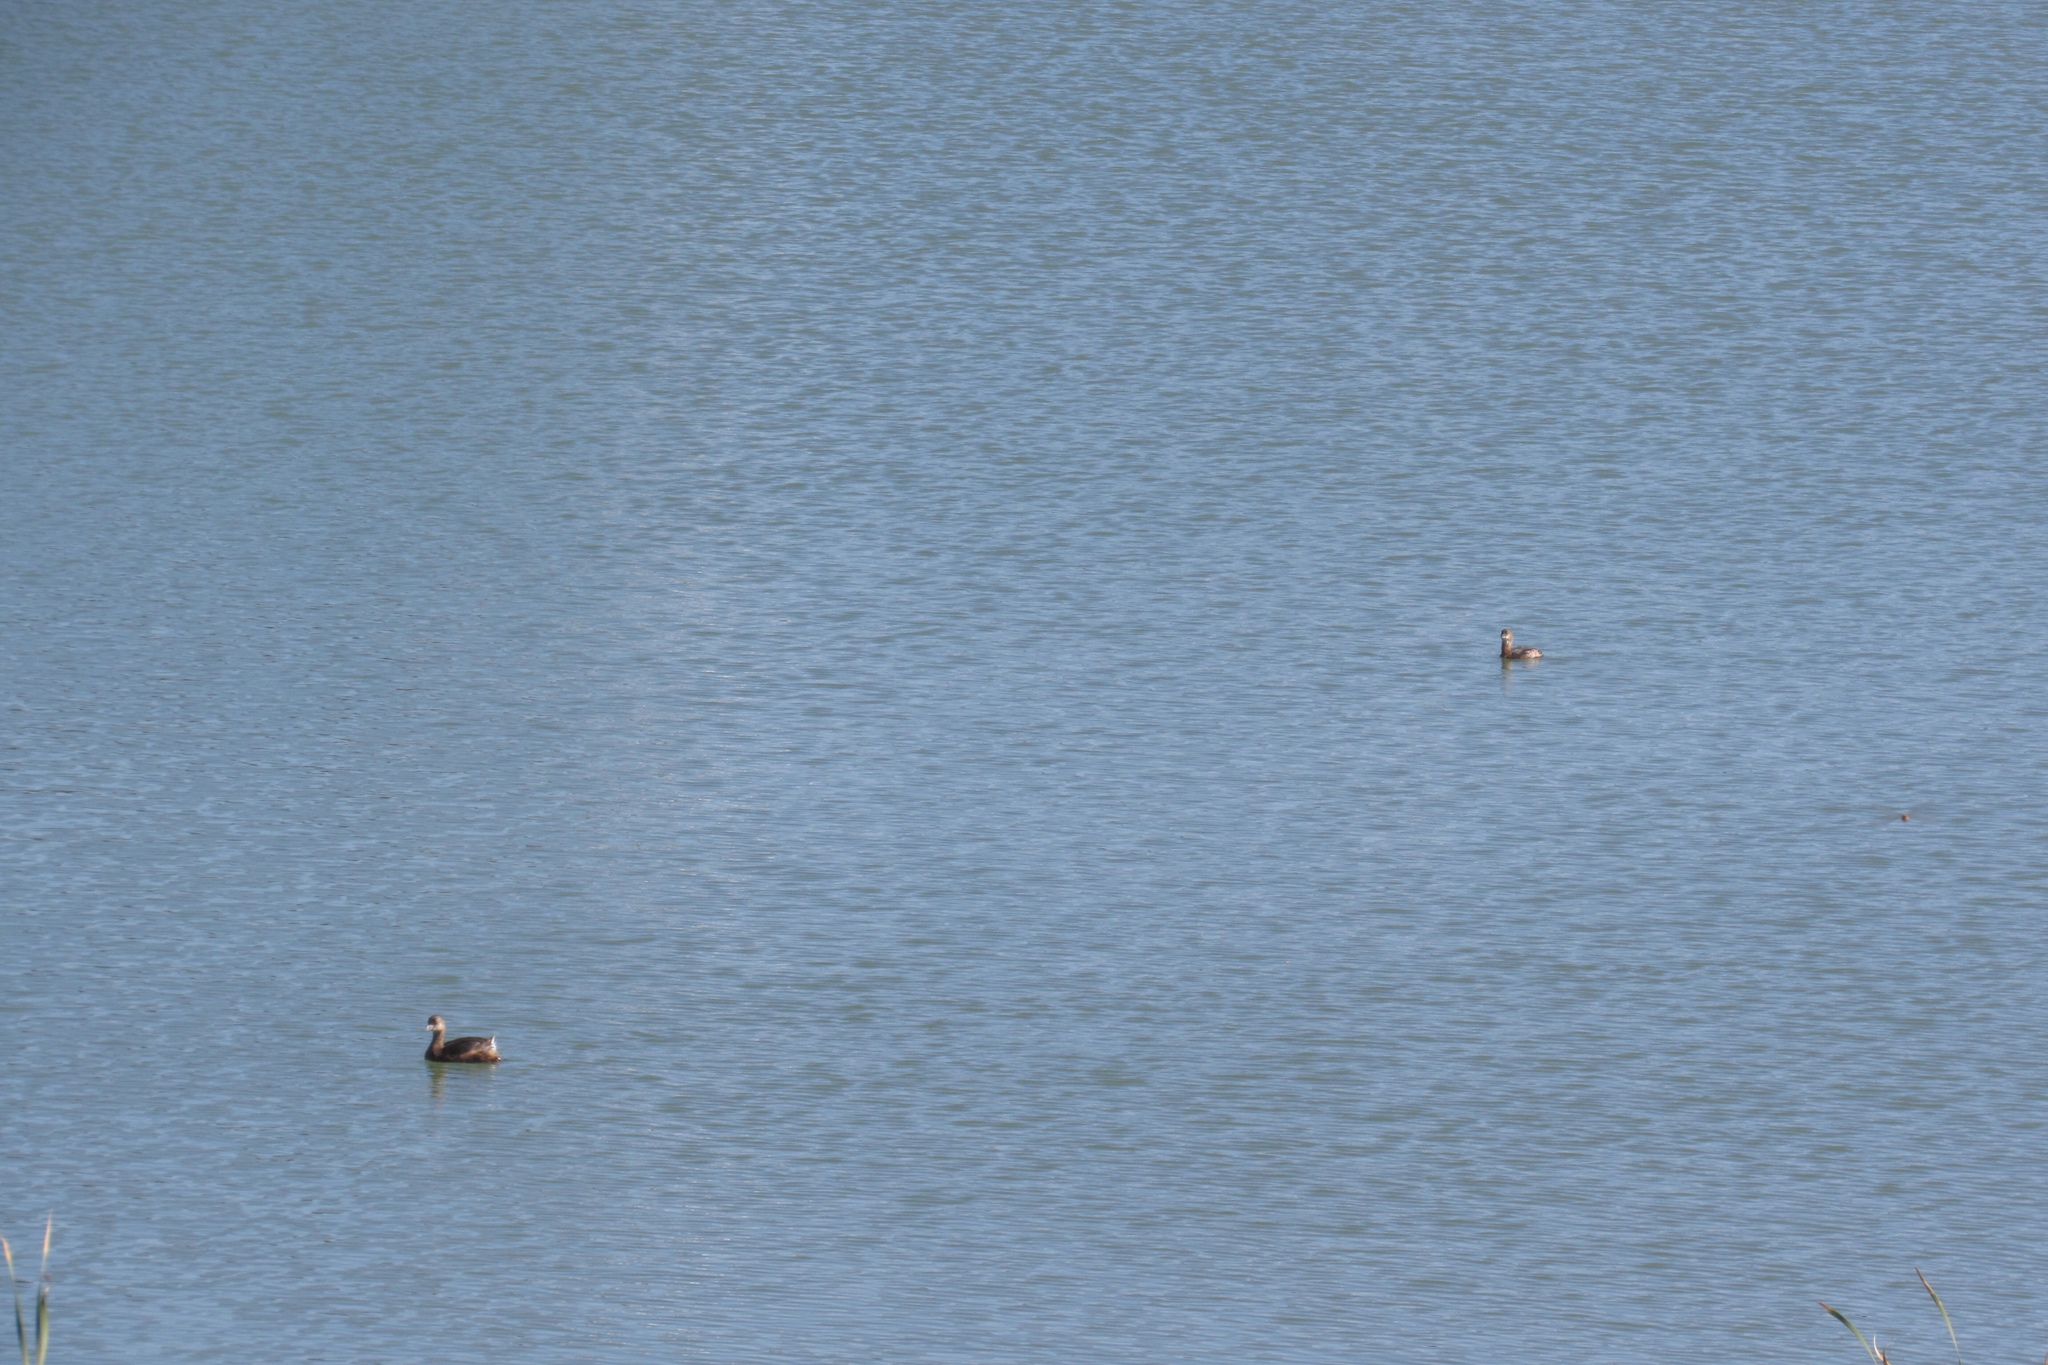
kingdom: Animalia
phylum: Chordata
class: Aves
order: Podicipediformes
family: Podicipedidae
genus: Podilymbus
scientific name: Podilymbus podiceps
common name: Pied-billed grebe
